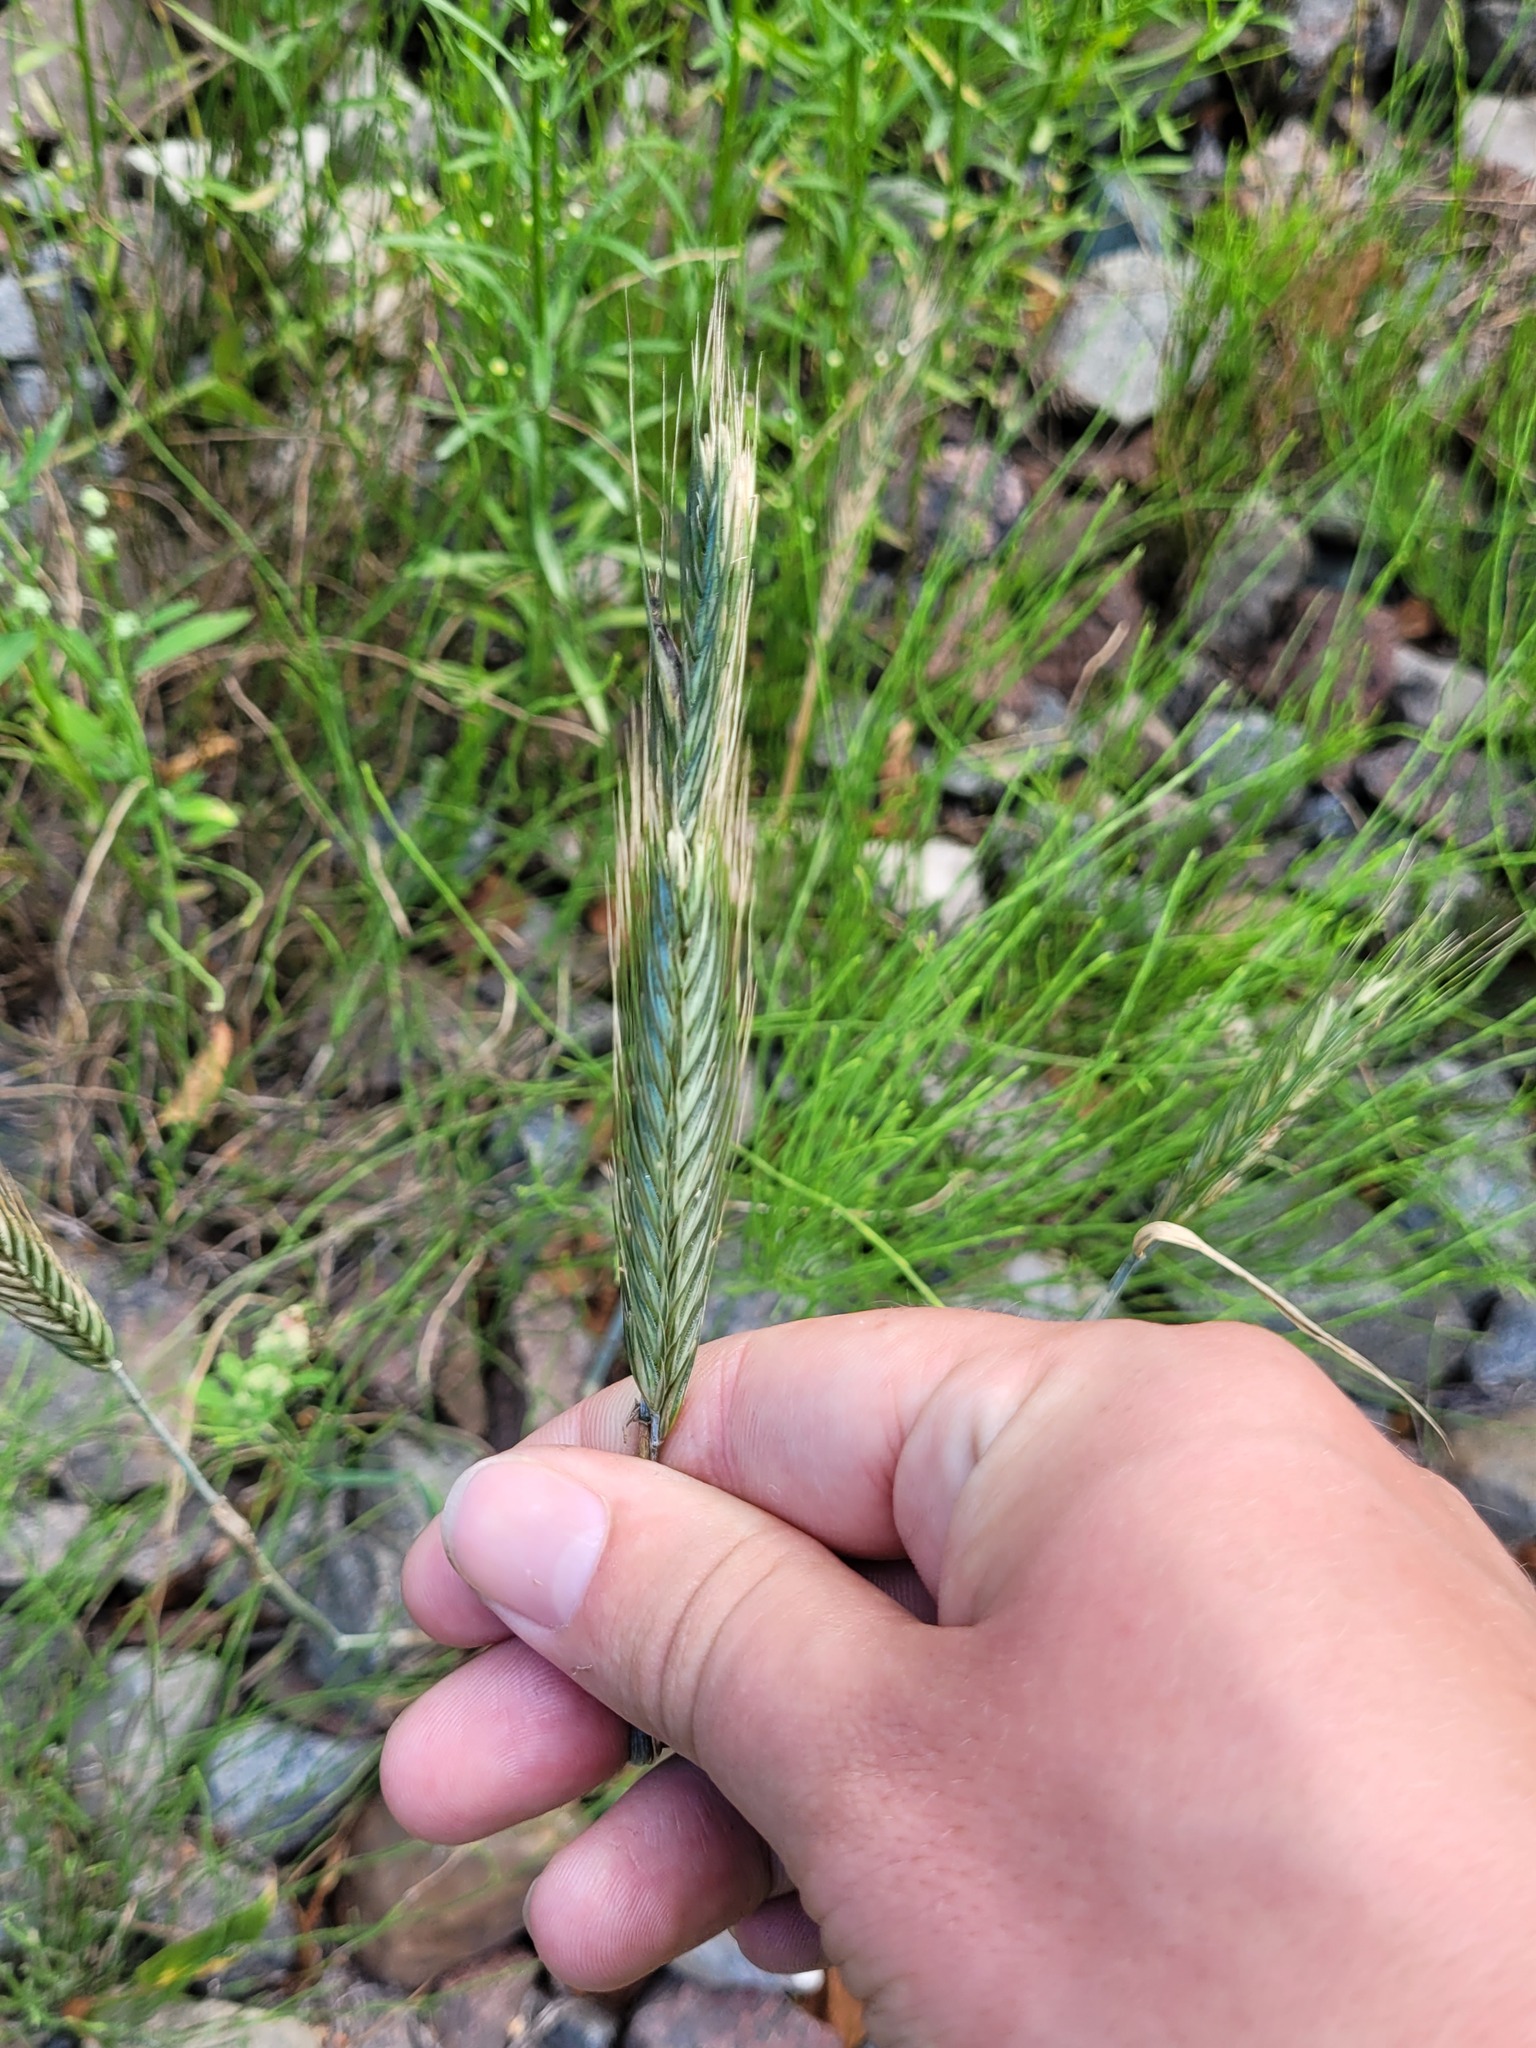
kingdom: Plantae
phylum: Tracheophyta
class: Liliopsida
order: Poales
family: Poaceae
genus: Secale
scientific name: Secale cereale
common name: Rye
